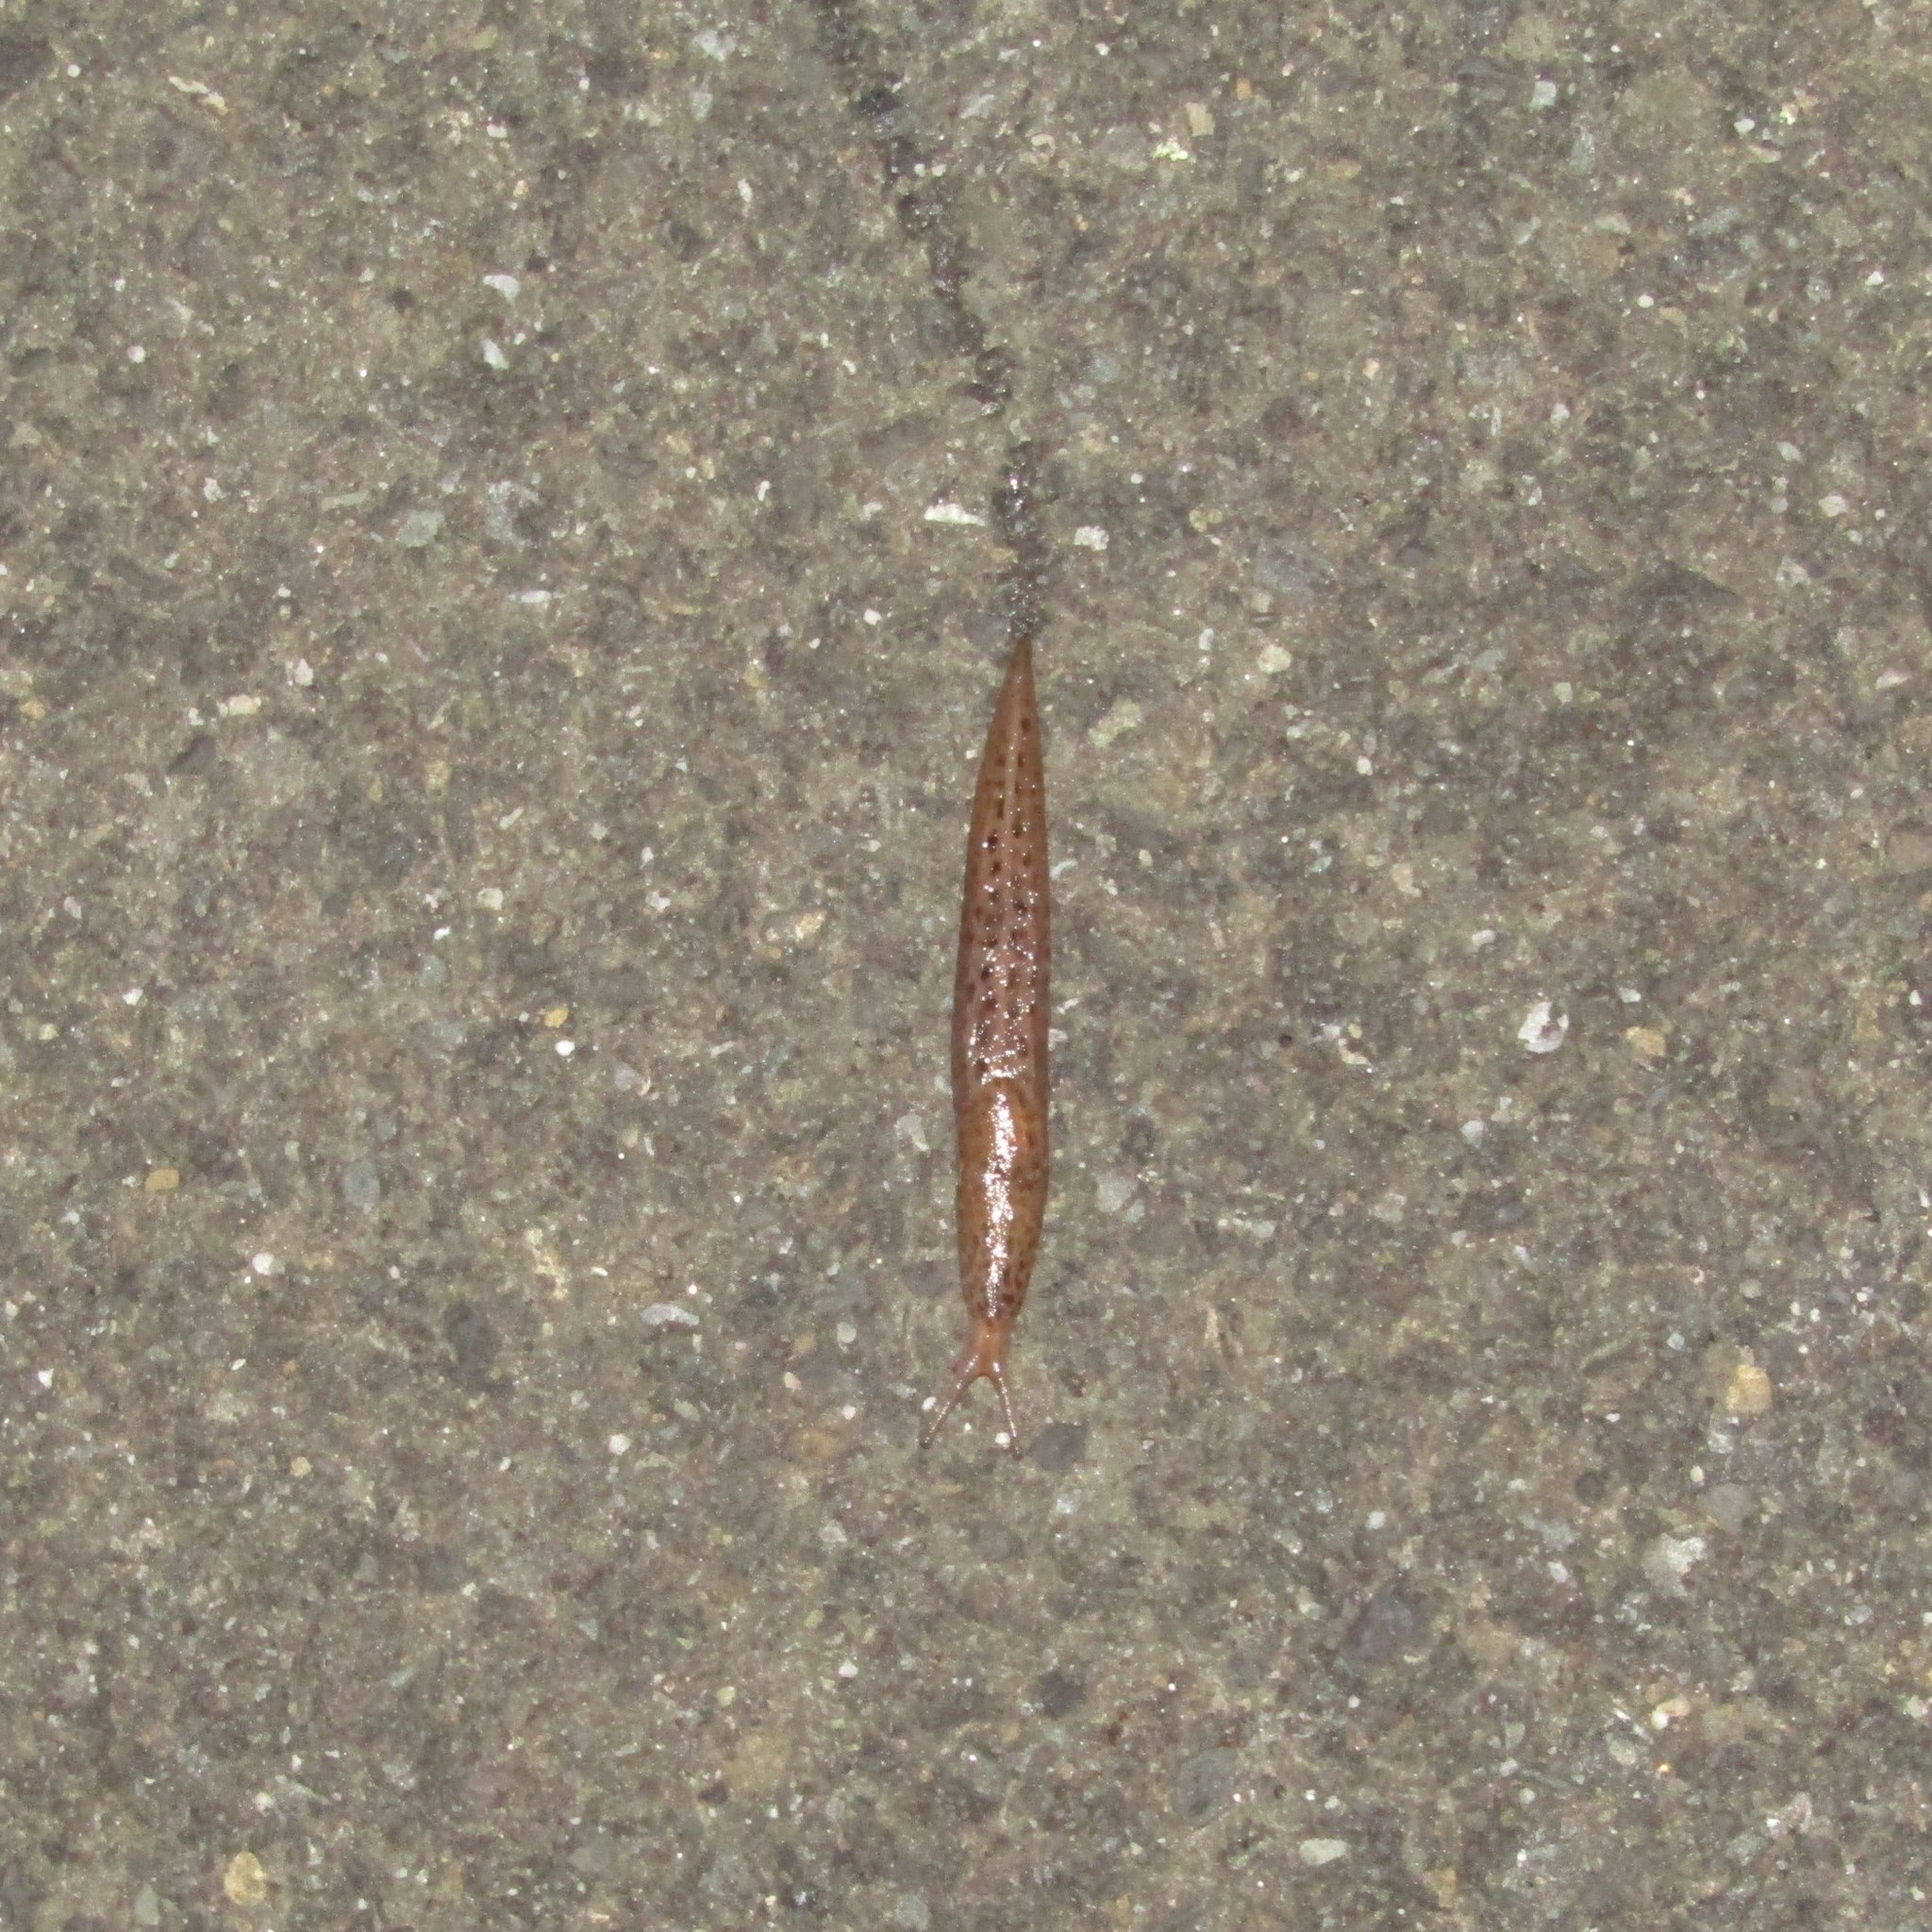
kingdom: Animalia
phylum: Mollusca
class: Gastropoda
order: Stylommatophora
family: Limacidae
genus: Limax
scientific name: Limax maximus
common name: Great grey slug
